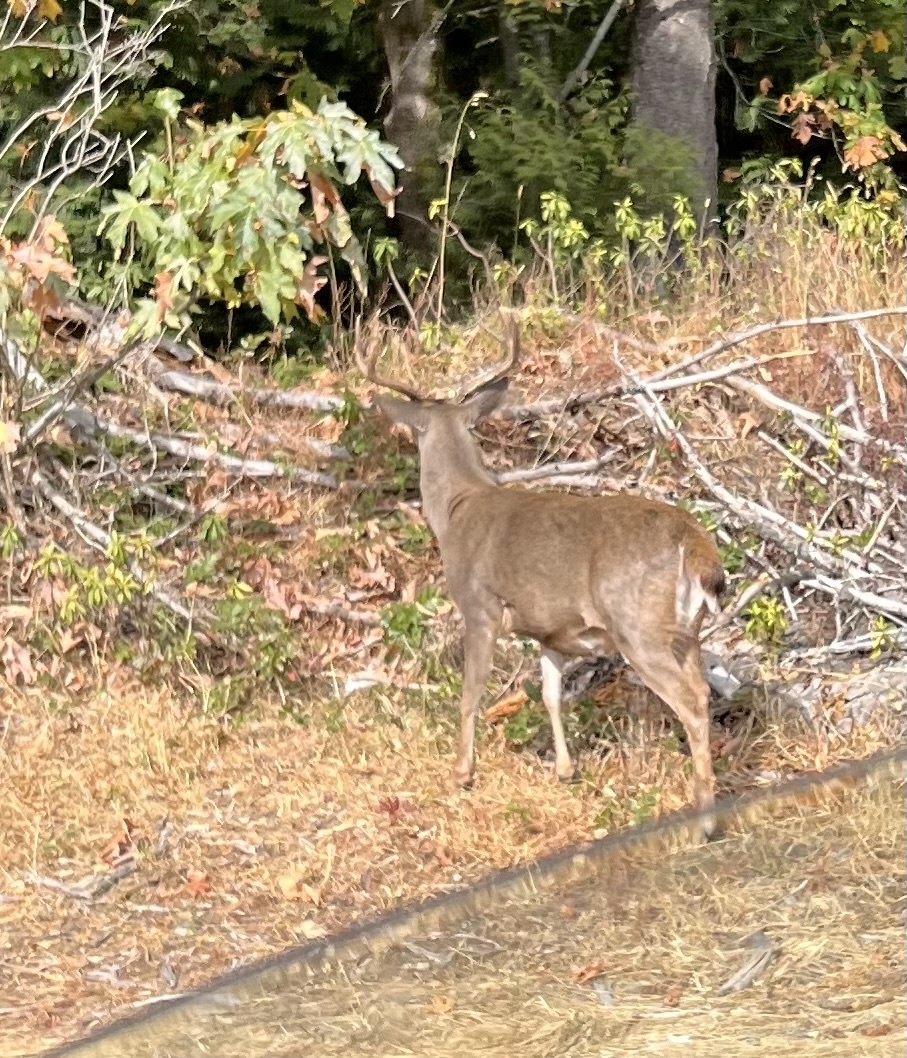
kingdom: Animalia
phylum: Chordata
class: Mammalia
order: Artiodactyla
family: Cervidae
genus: Odocoileus
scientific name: Odocoileus hemionus
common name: Mule deer
